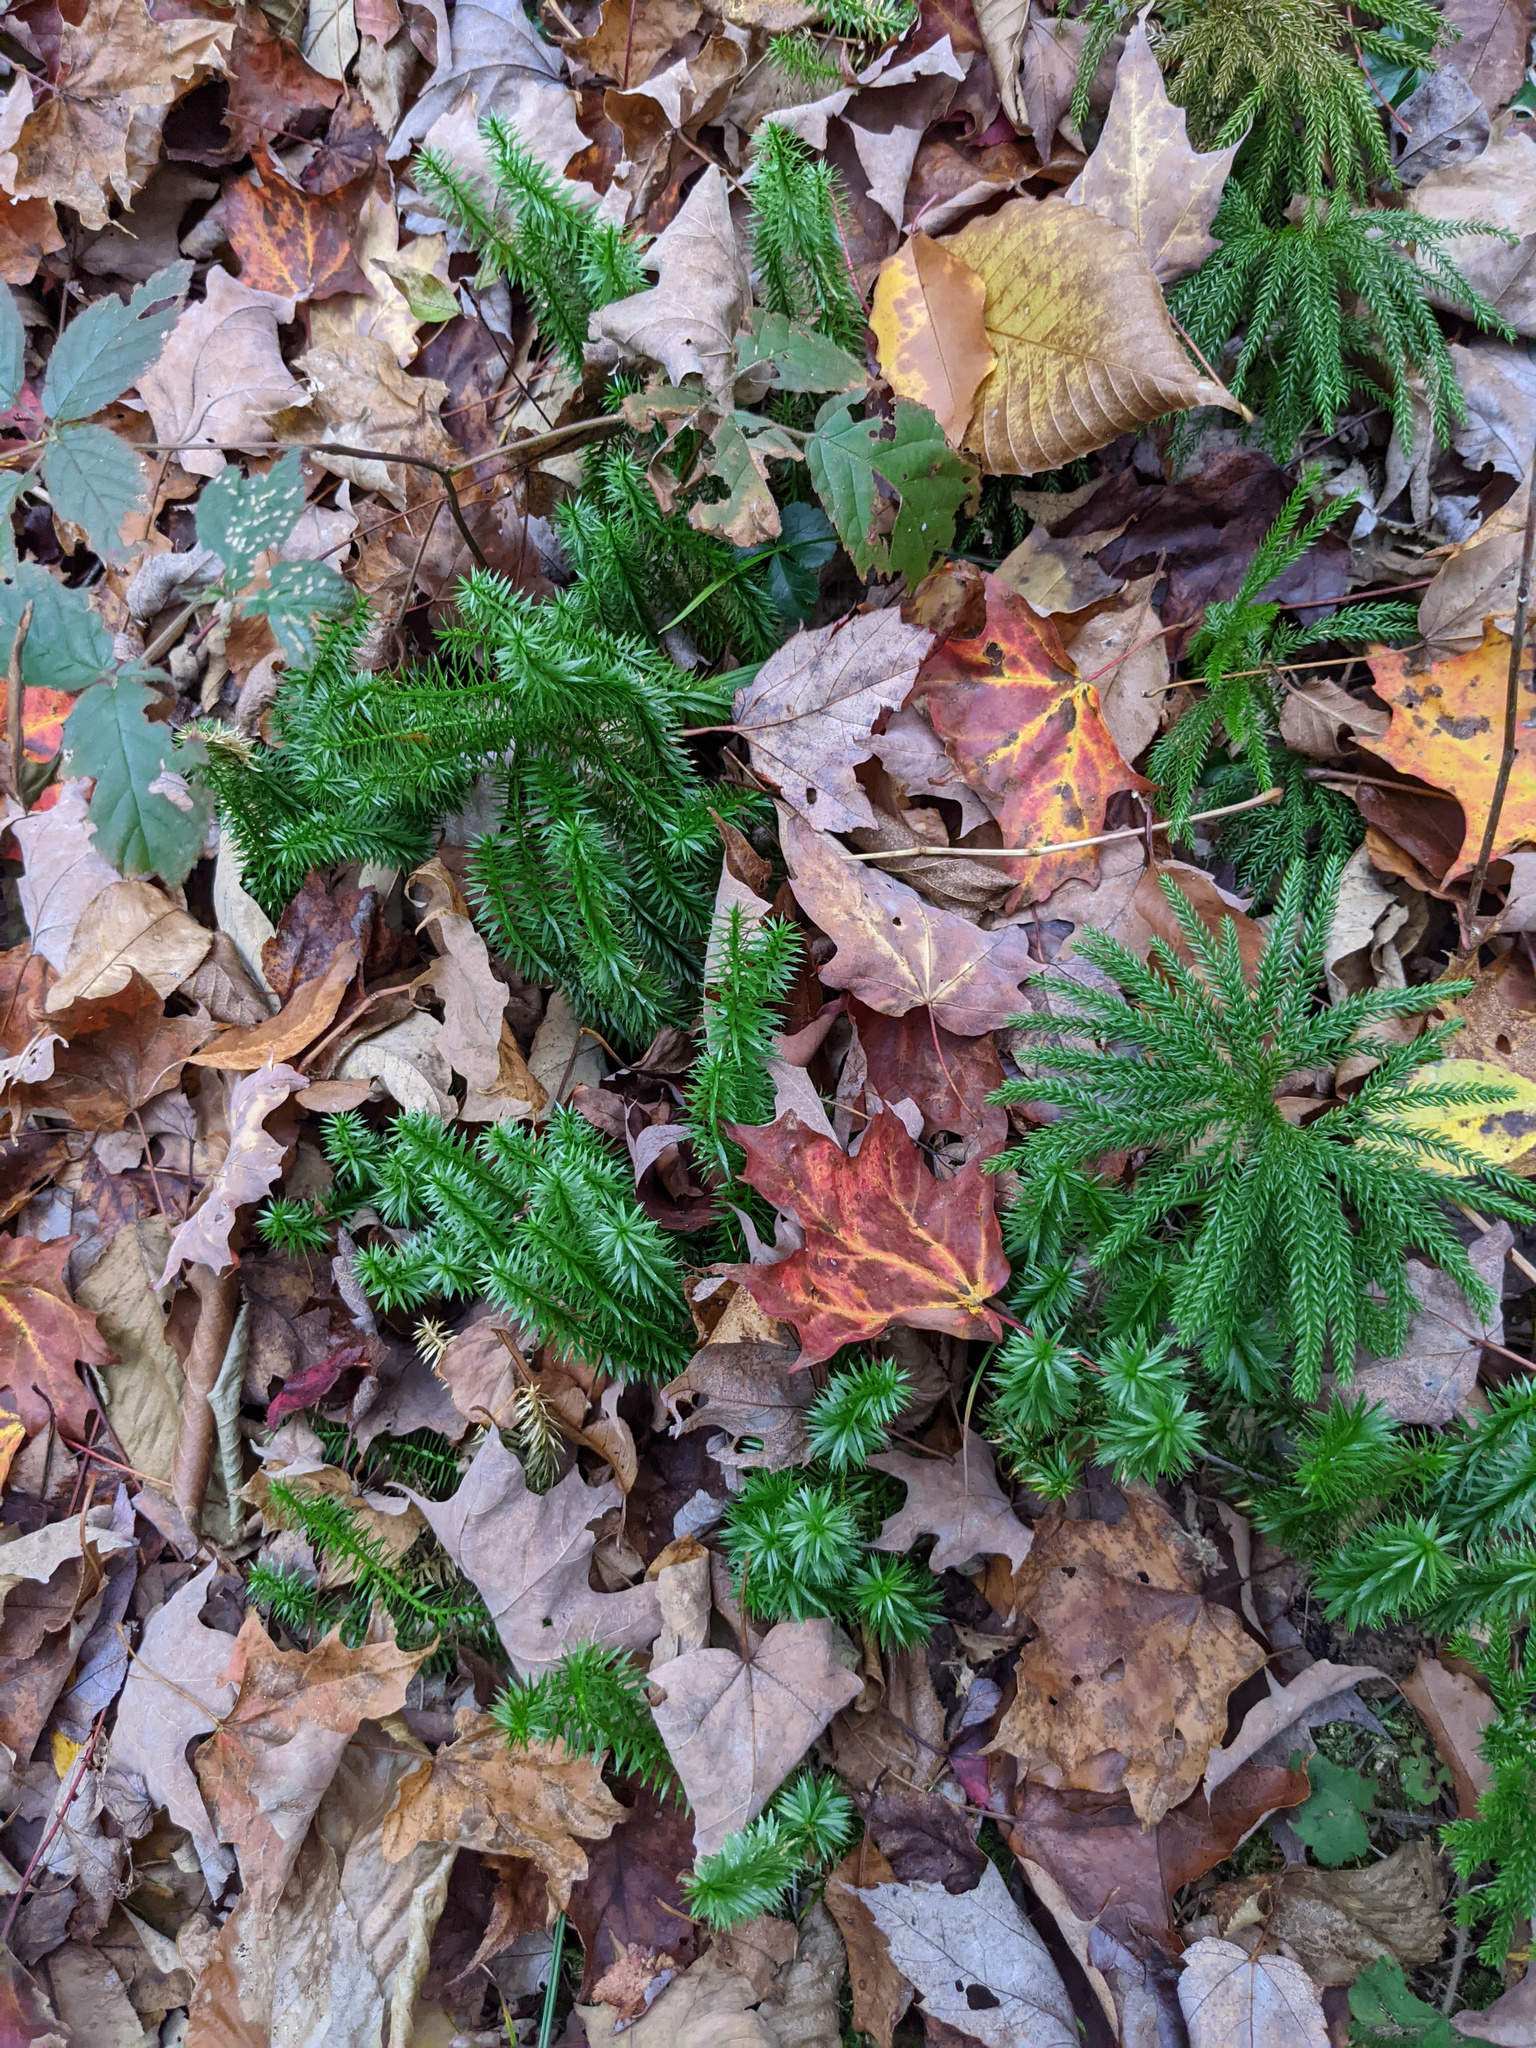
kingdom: Plantae
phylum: Tracheophyta
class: Lycopodiopsida
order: Lycopodiales
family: Lycopodiaceae
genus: Spinulum
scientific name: Spinulum annotinum
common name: Interrupted club-moss
